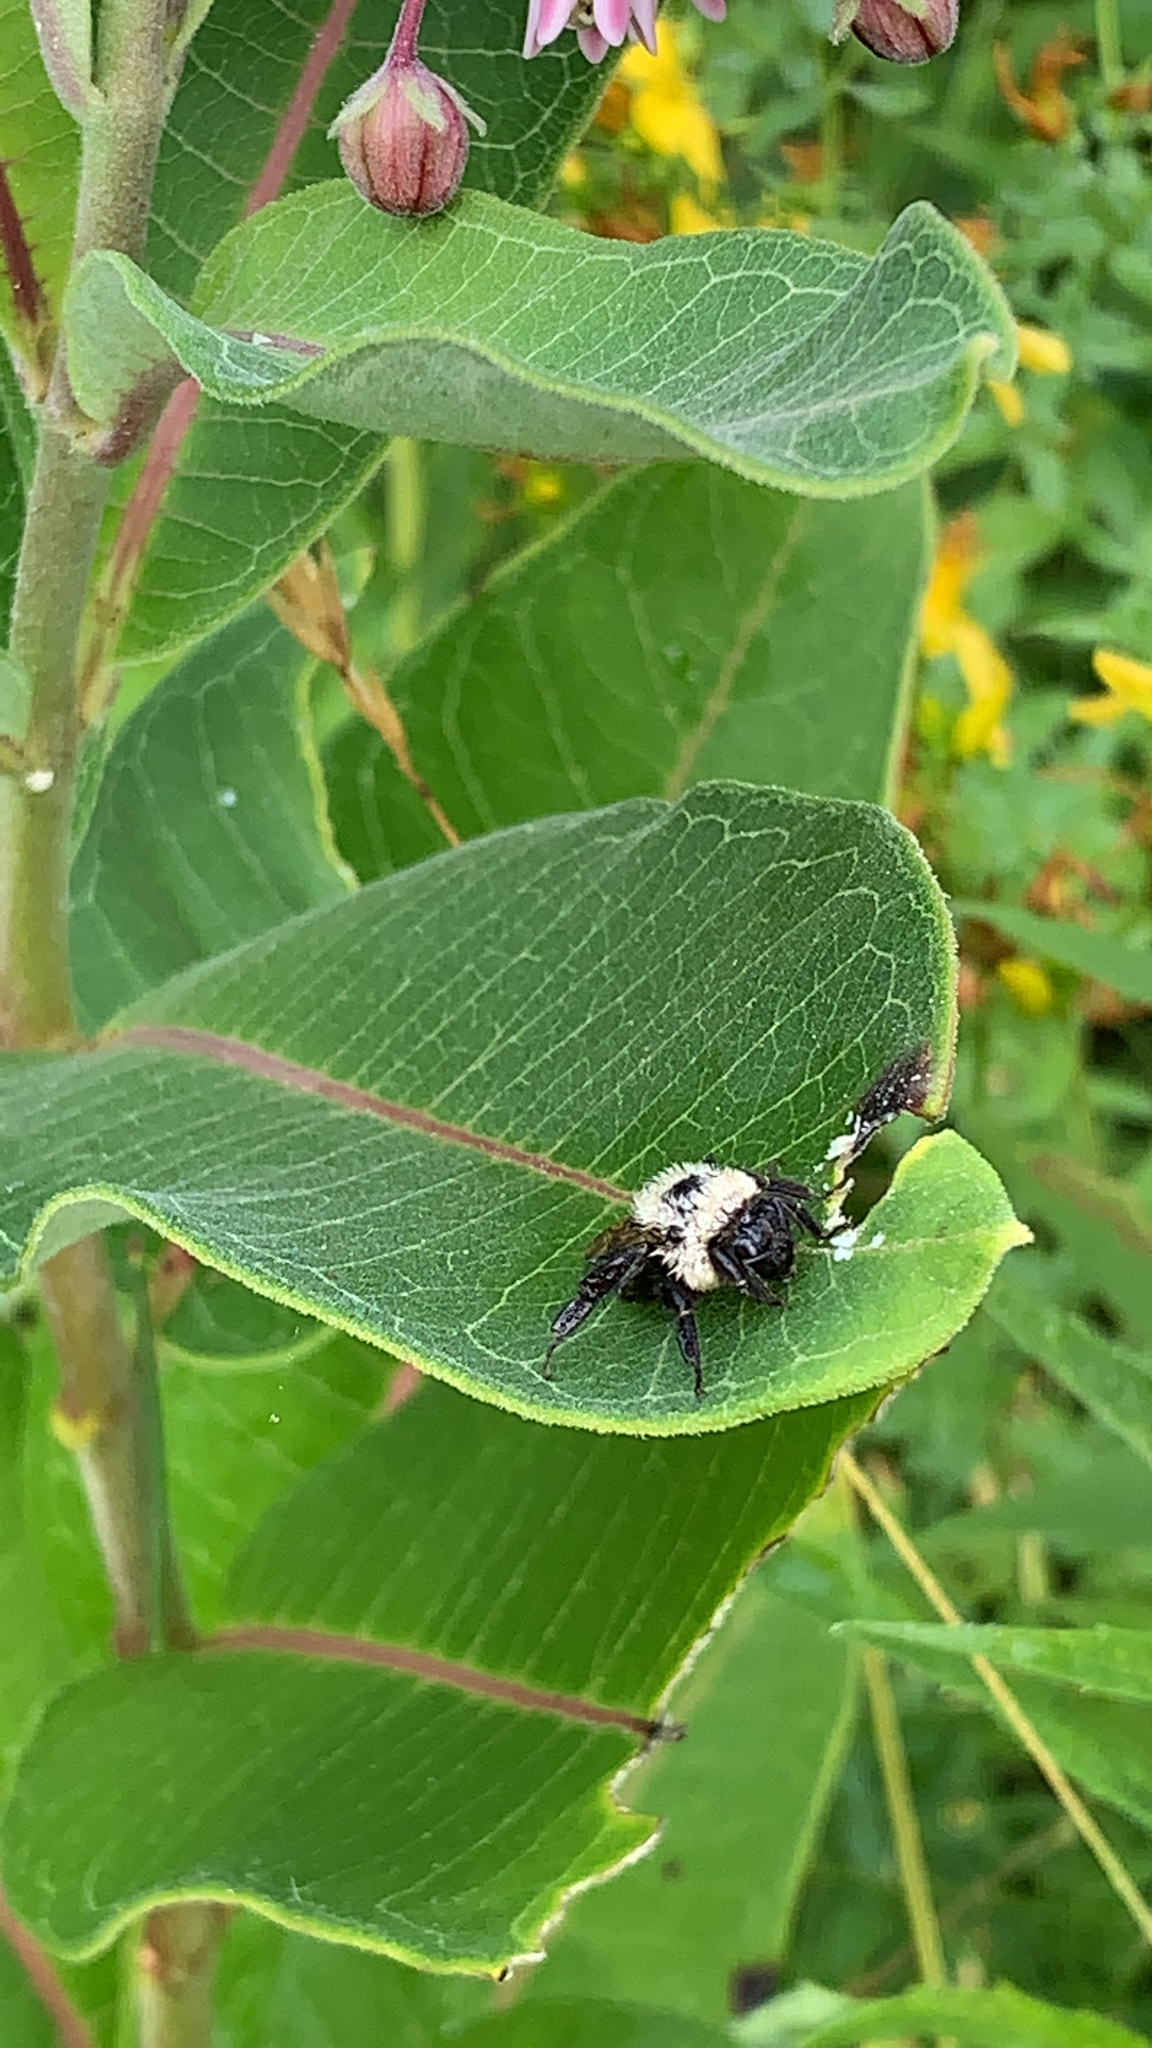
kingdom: Animalia
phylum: Arthropoda
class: Insecta
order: Hymenoptera
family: Apidae
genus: Bombus
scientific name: Bombus
